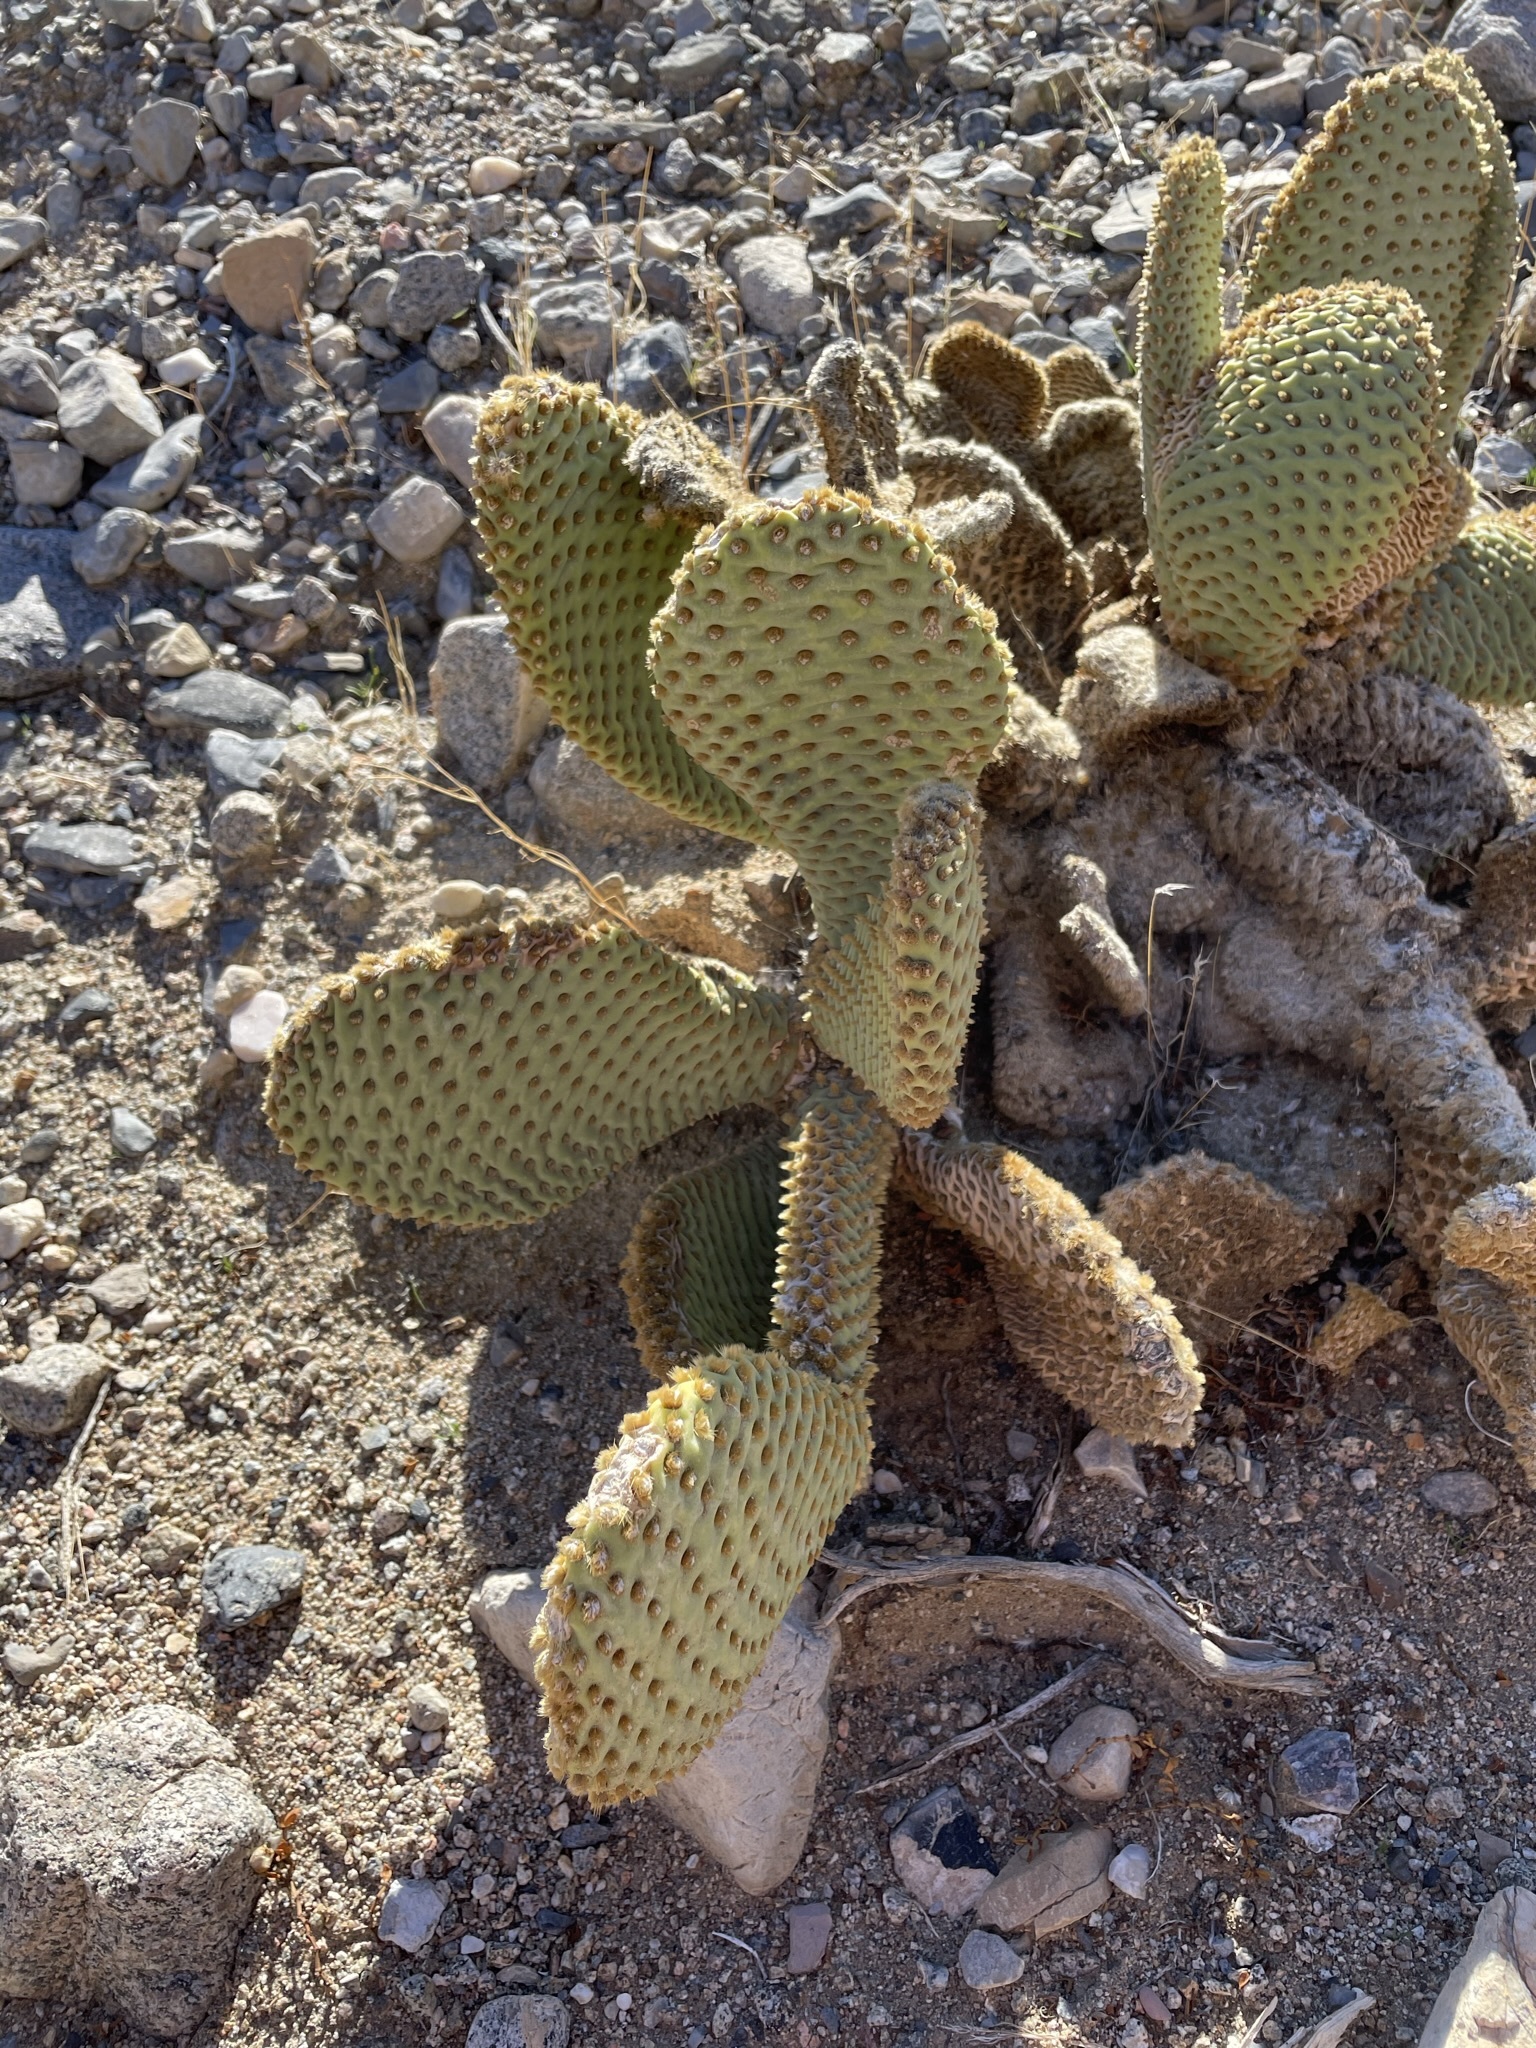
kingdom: Plantae
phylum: Tracheophyta
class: Magnoliopsida
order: Caryophyllales
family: Cactaceae
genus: Opuntia
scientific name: Opuntia basilaris
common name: Beavertail prickly-pear
